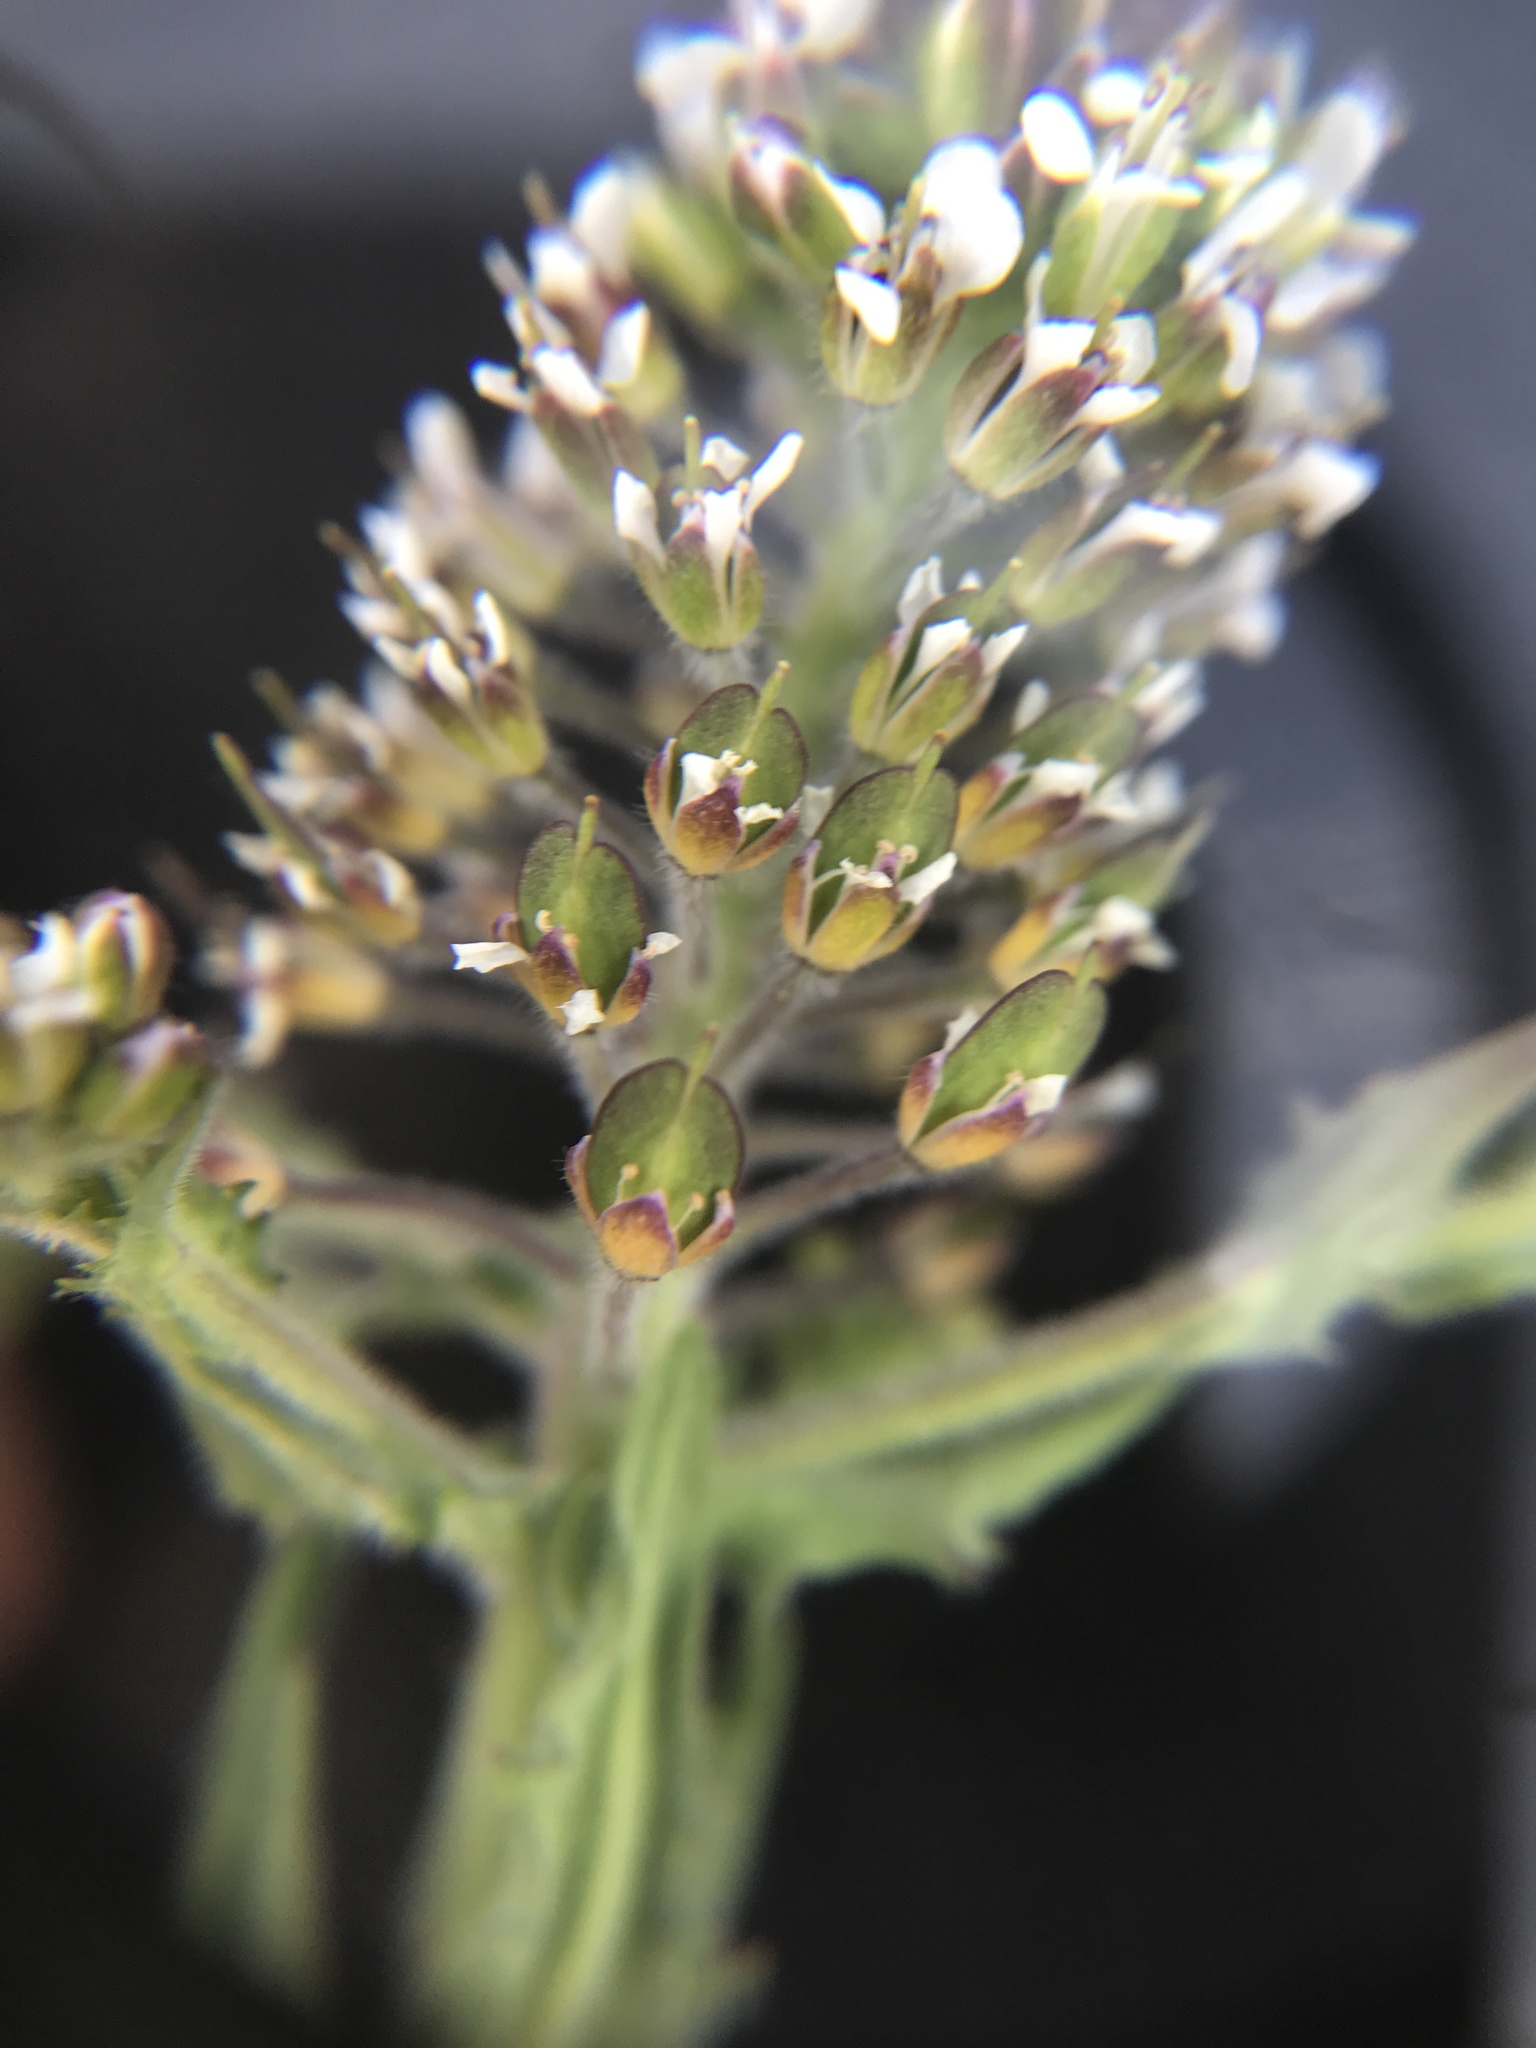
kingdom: Plantae
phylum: Tracheophyta
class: Magnoliopsida
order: Brassicales
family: Brassicaceae
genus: Lepidium
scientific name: Lepidium campestre
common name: Field pepperwort
